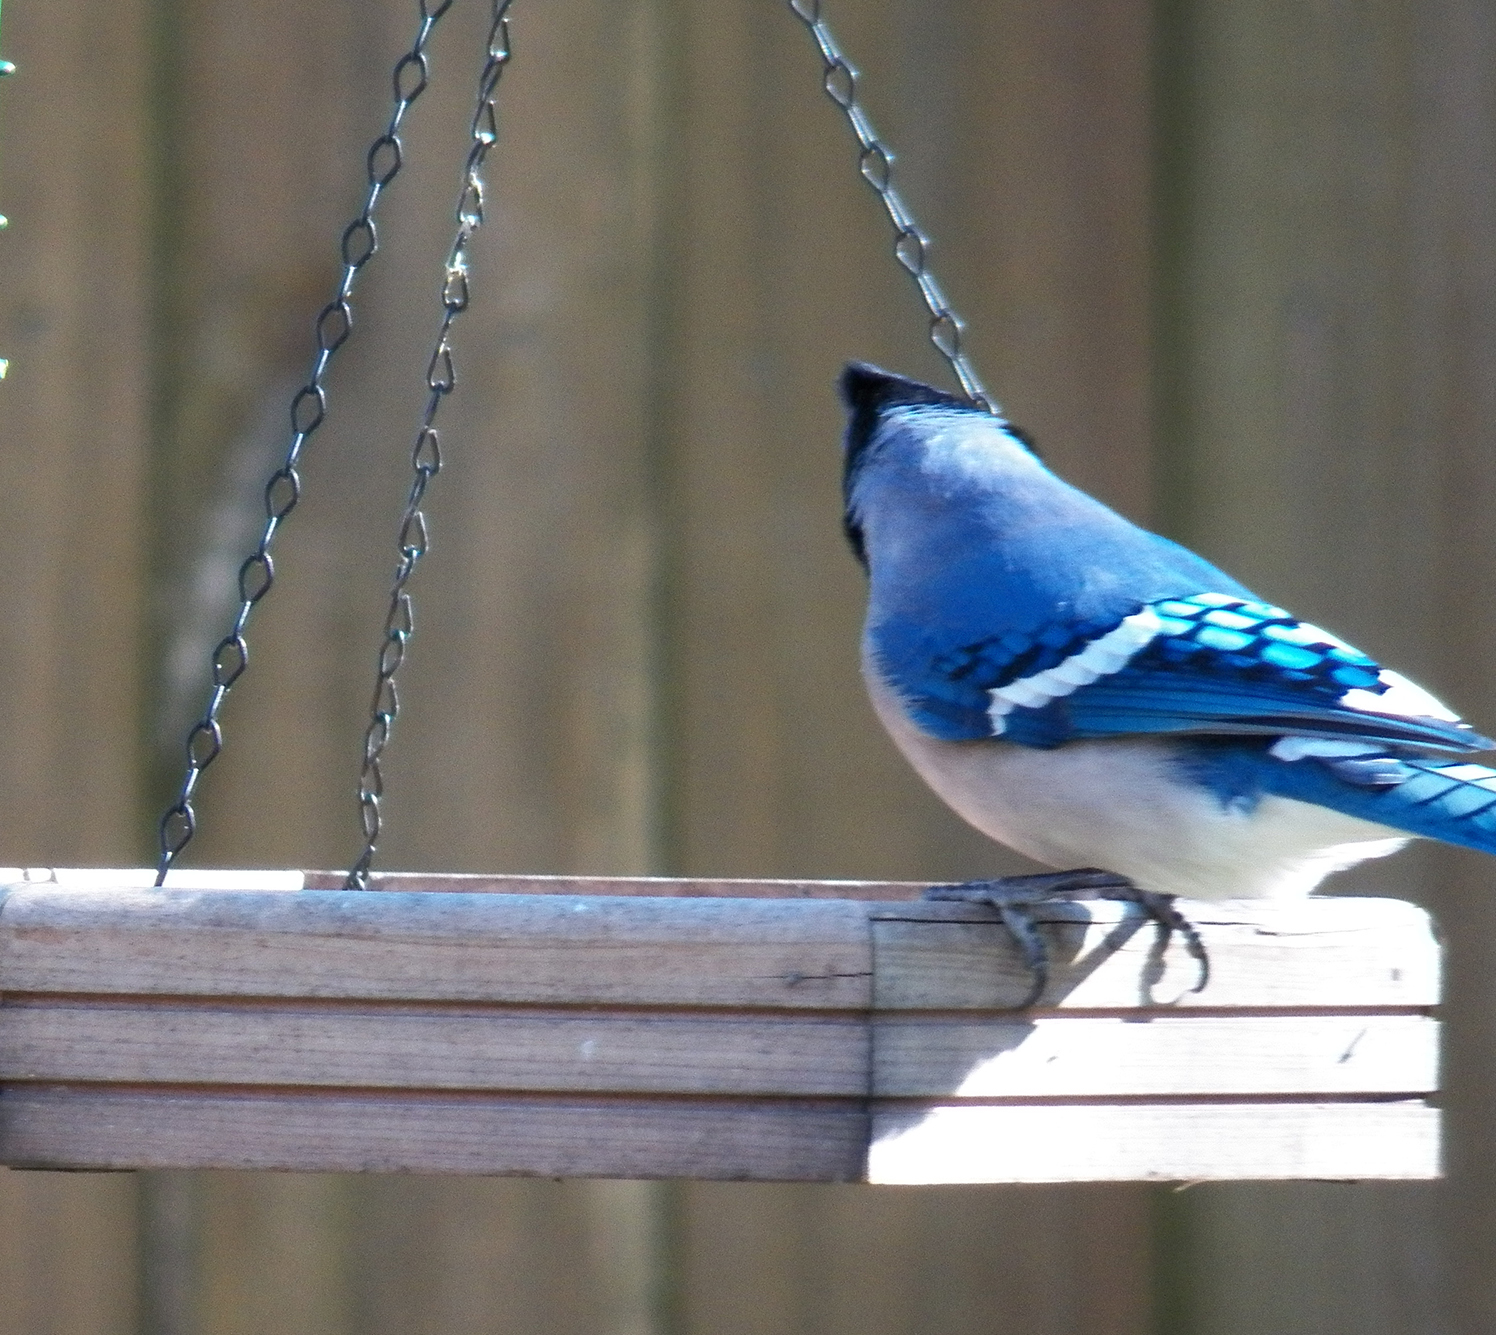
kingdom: Animalia
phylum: Chordata
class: Aves
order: Passeriformes
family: Corvidae
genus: Cyanocitta
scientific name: Cyanocitta cristata
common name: Blue jay
